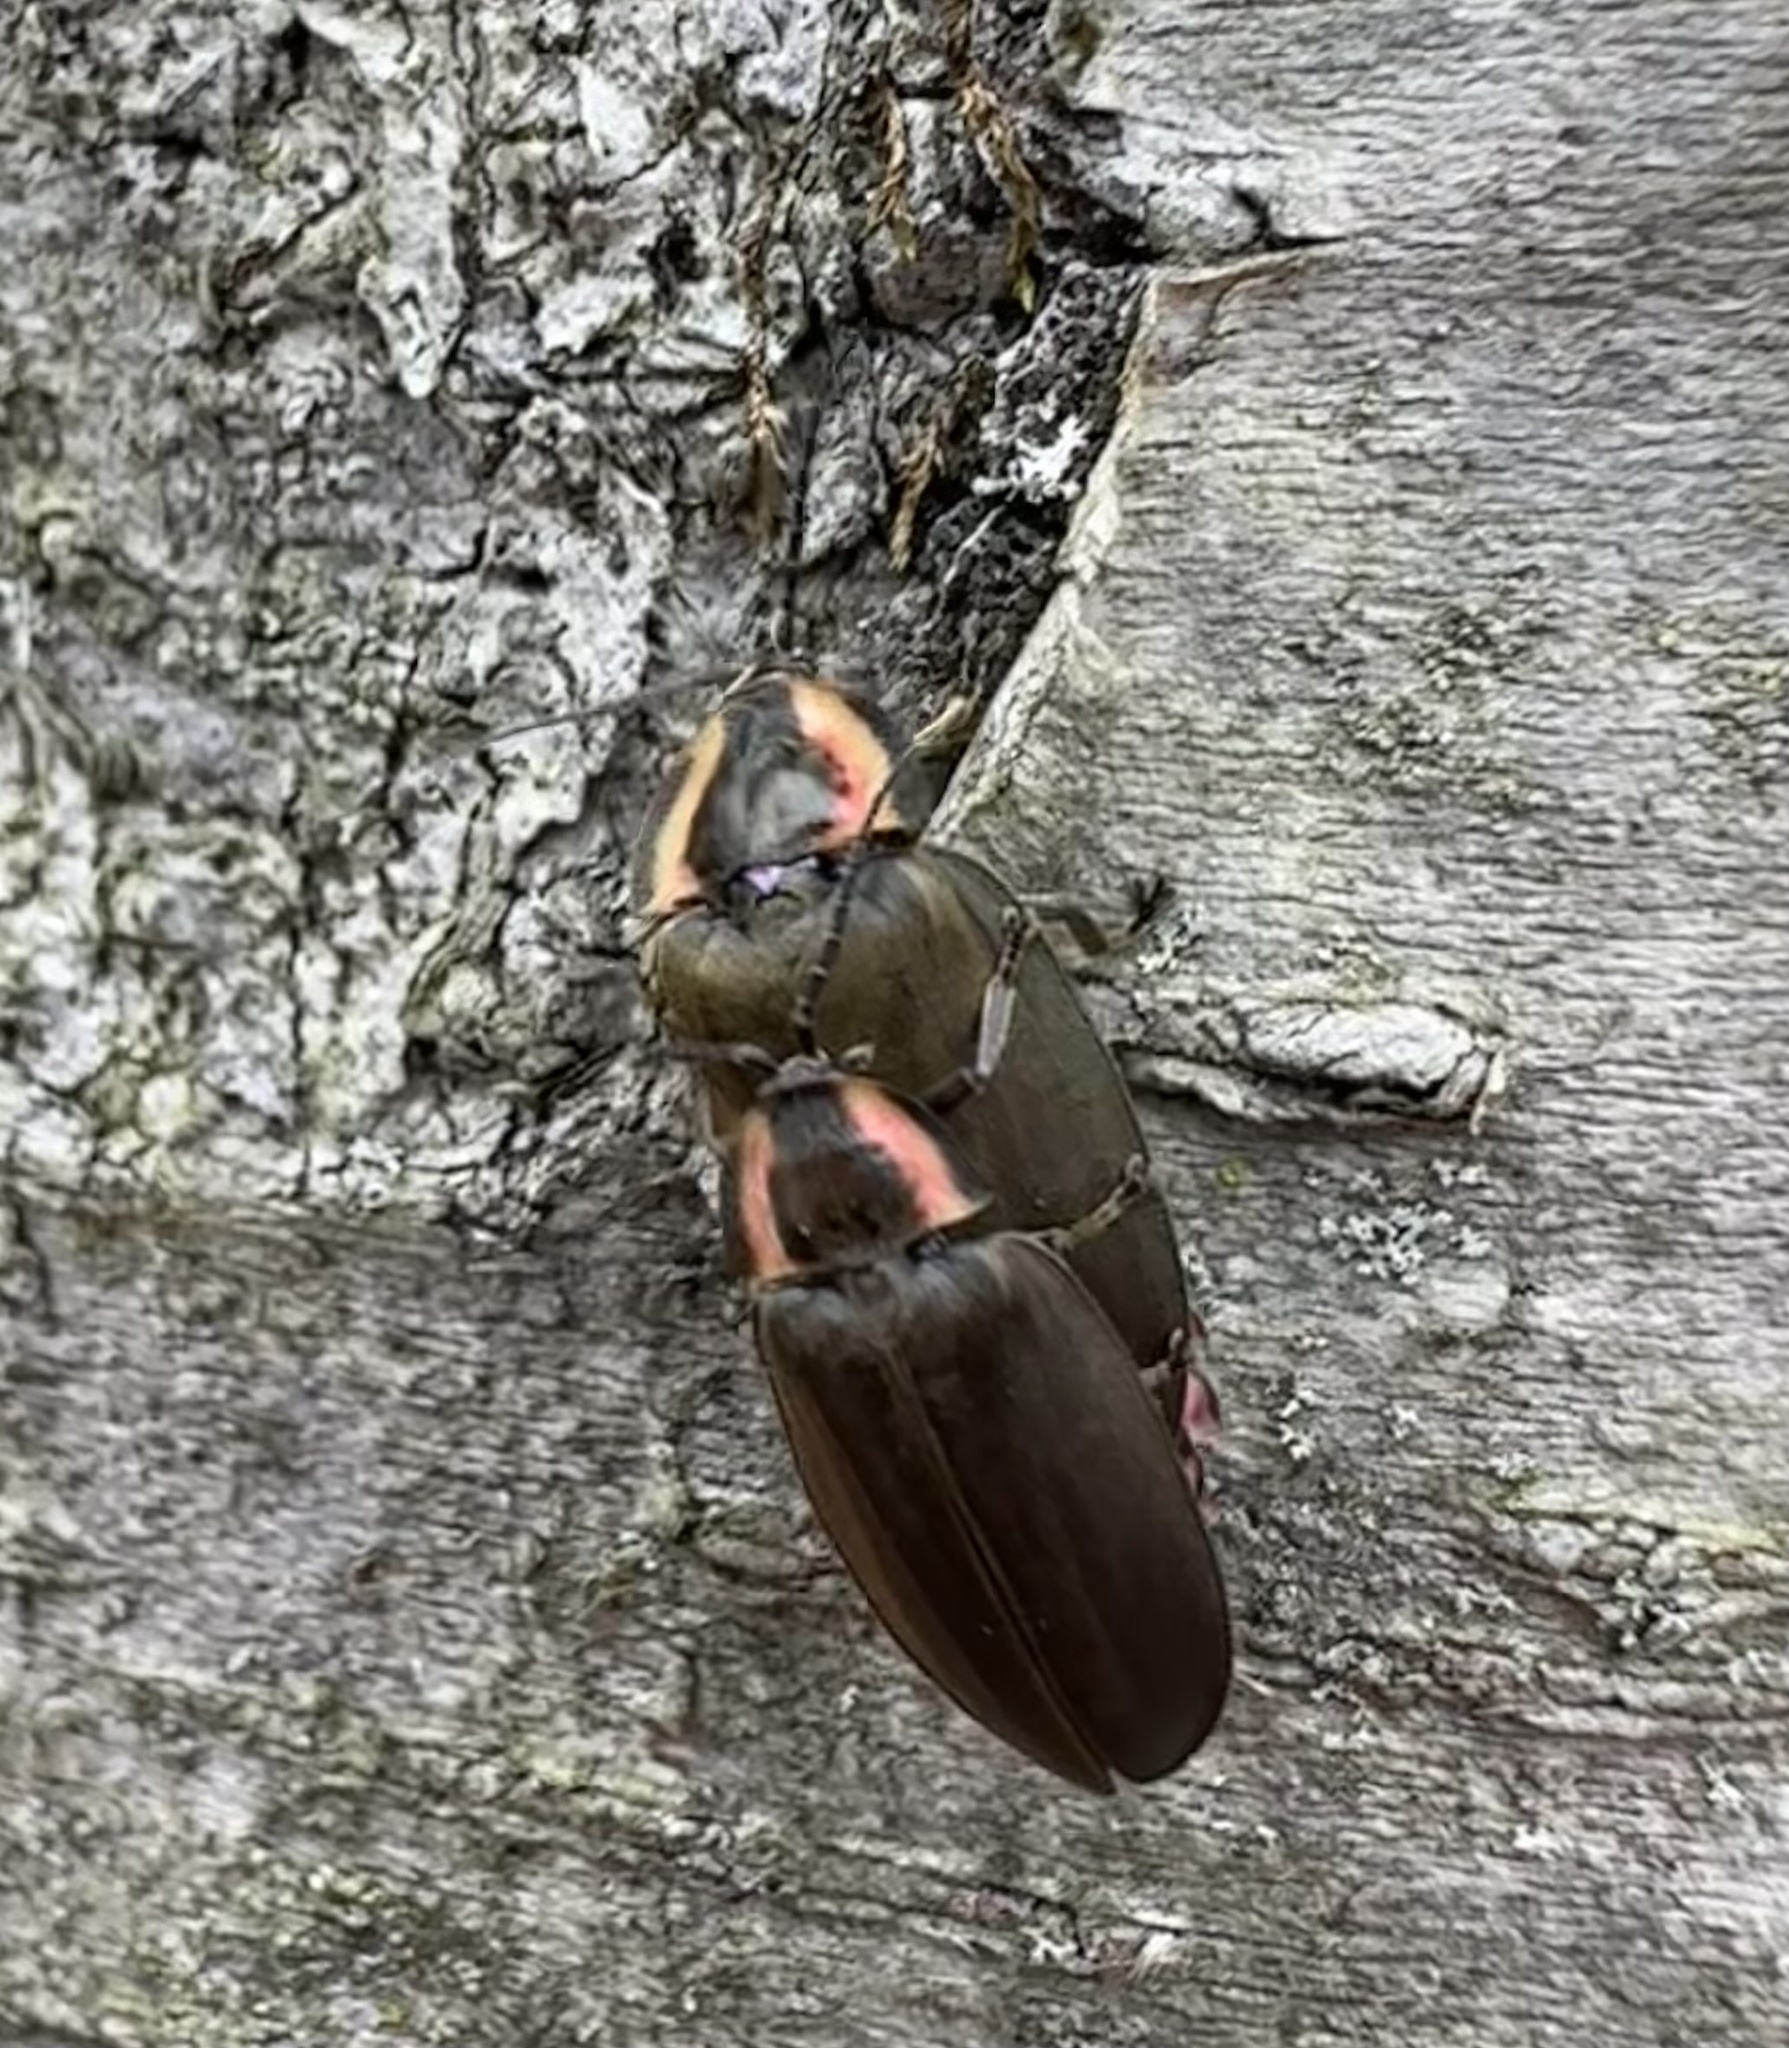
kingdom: Animalia
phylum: Arthropoda
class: Insecta
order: Coleoptera
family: Lampyridae
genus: Photinus
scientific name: Photinus corrusca
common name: Winter firefly
